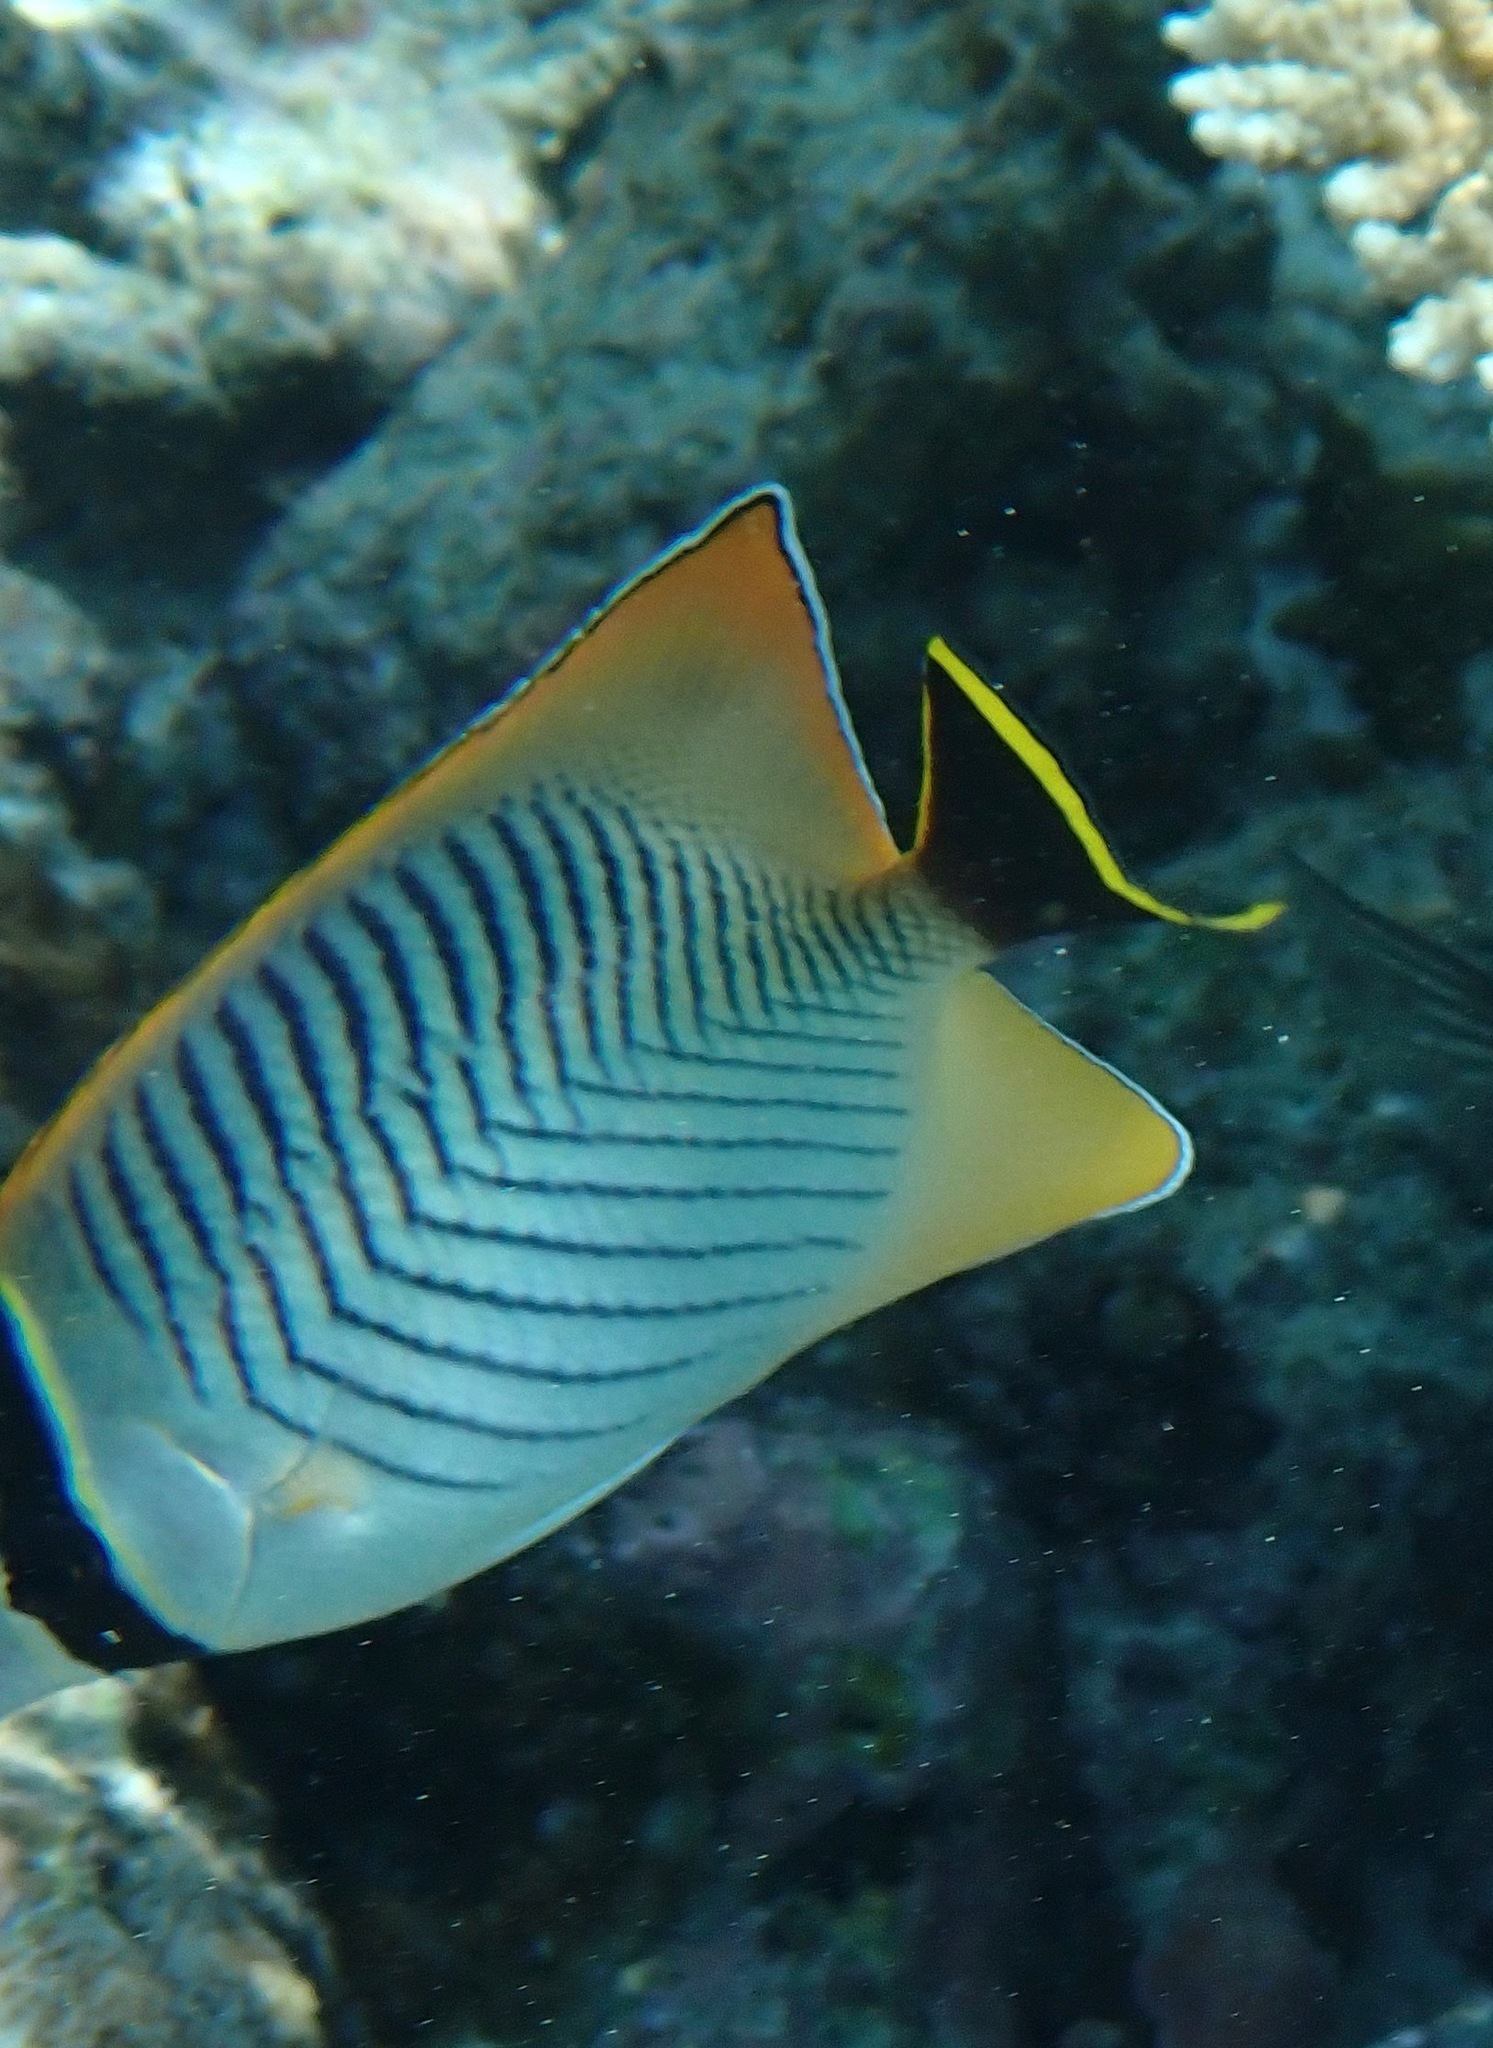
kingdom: Animalia
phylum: Chordata
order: Perciformes
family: Chaetodontidae
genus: Chaetodon
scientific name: Chaetodon trifascialis
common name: Chevroned butterflyfish
